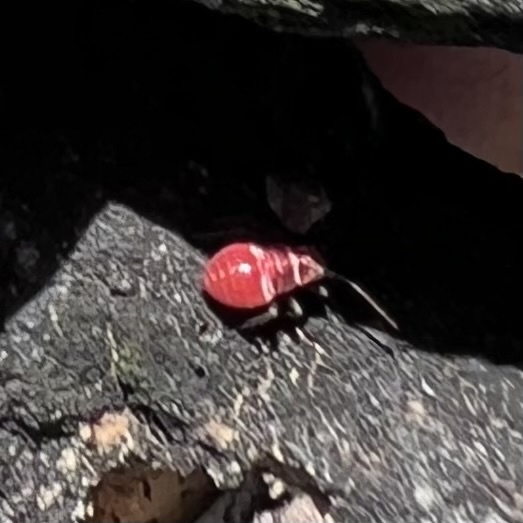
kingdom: Animalia
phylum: Arthropoda
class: Insecta
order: Hemiptera
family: Miridae
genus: Lopidea
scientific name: Lopidea major
